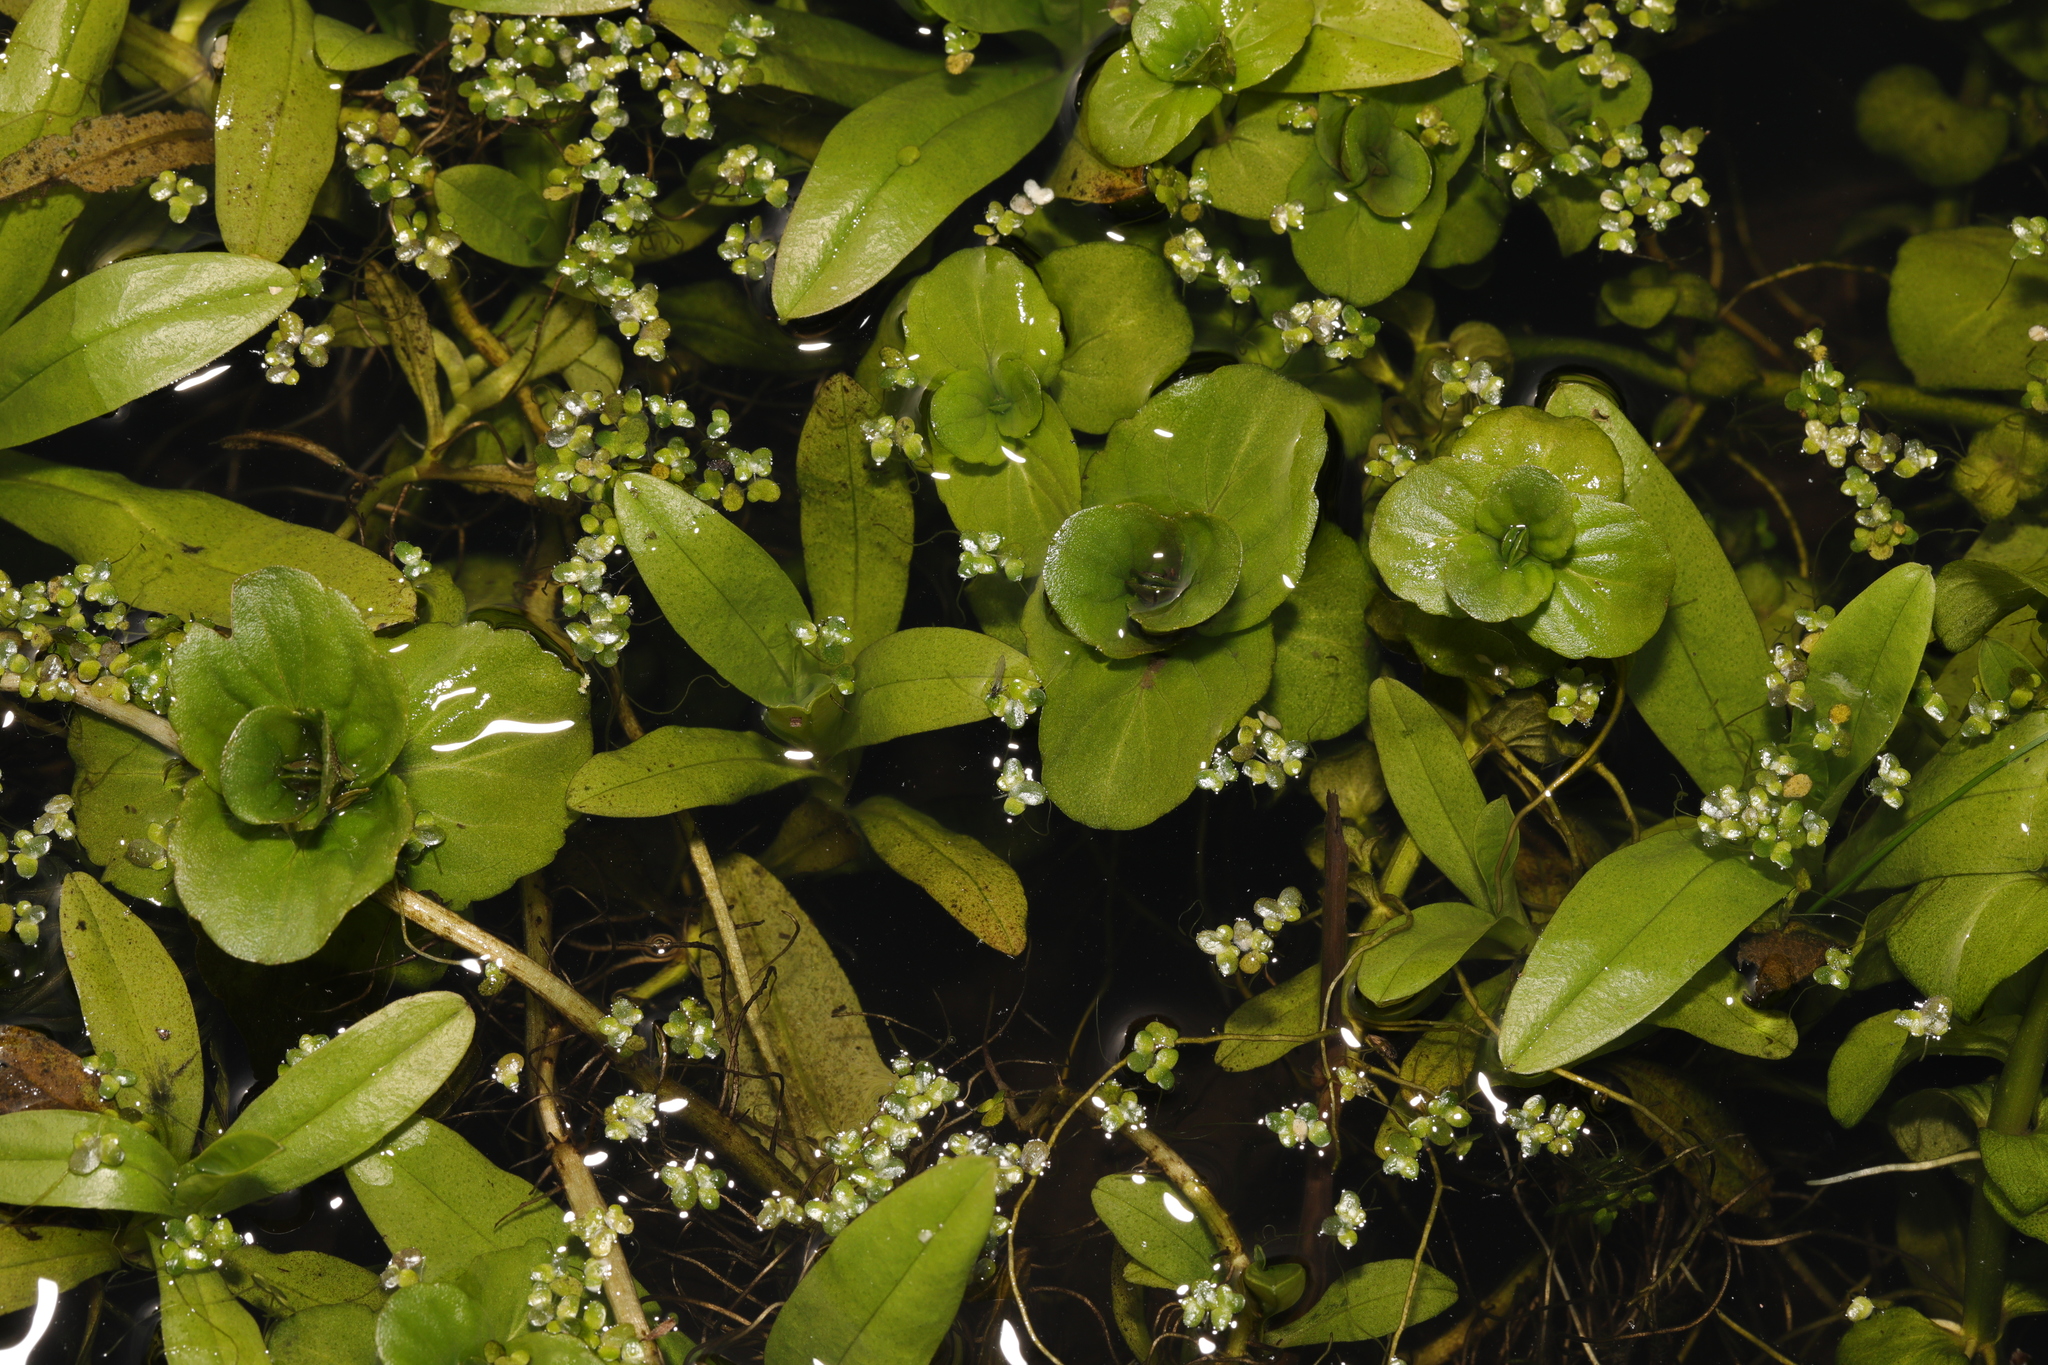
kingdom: Plantae
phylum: Tracheophyta
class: Magnoliopsida
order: Boraginales
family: Boraginaceae
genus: Myosotis
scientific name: Myosotis scorpioides
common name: Water forget-me-not
